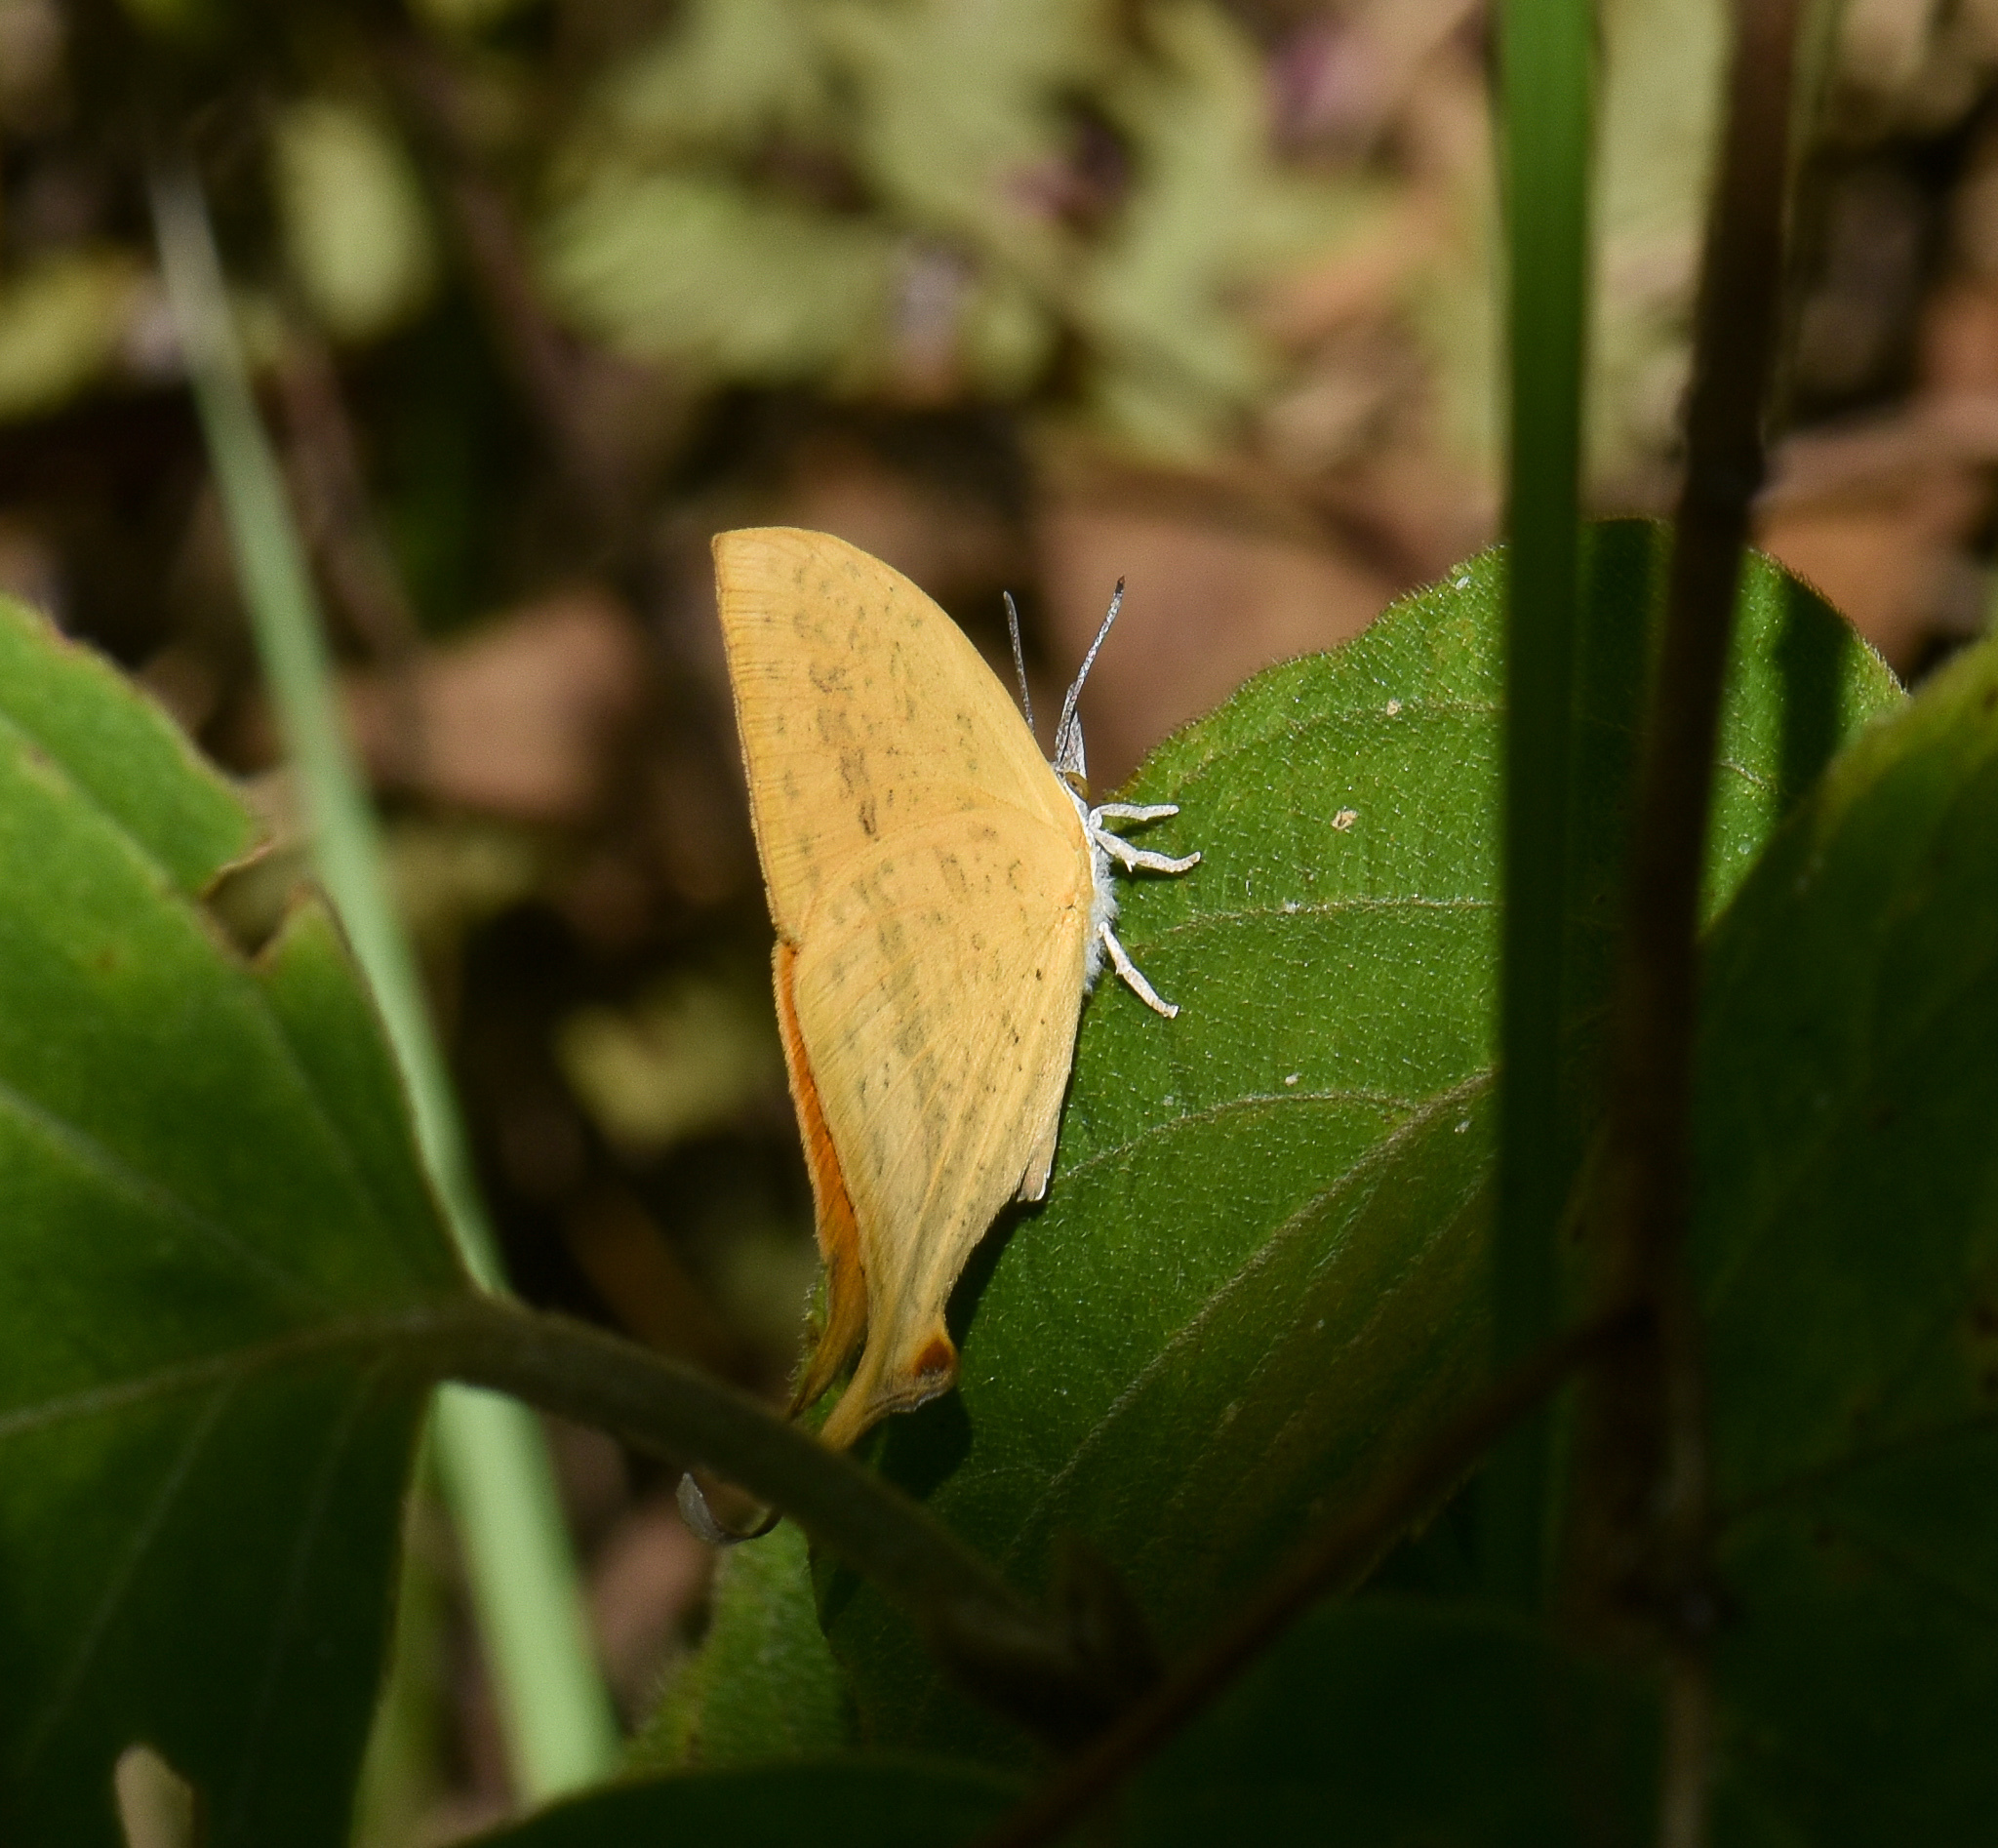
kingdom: Animalia
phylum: Arthropoda
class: Insecta
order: Lepidoptera
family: Lycaenidae
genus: Loxura
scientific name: Loxura atymnus
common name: Common yamfly
